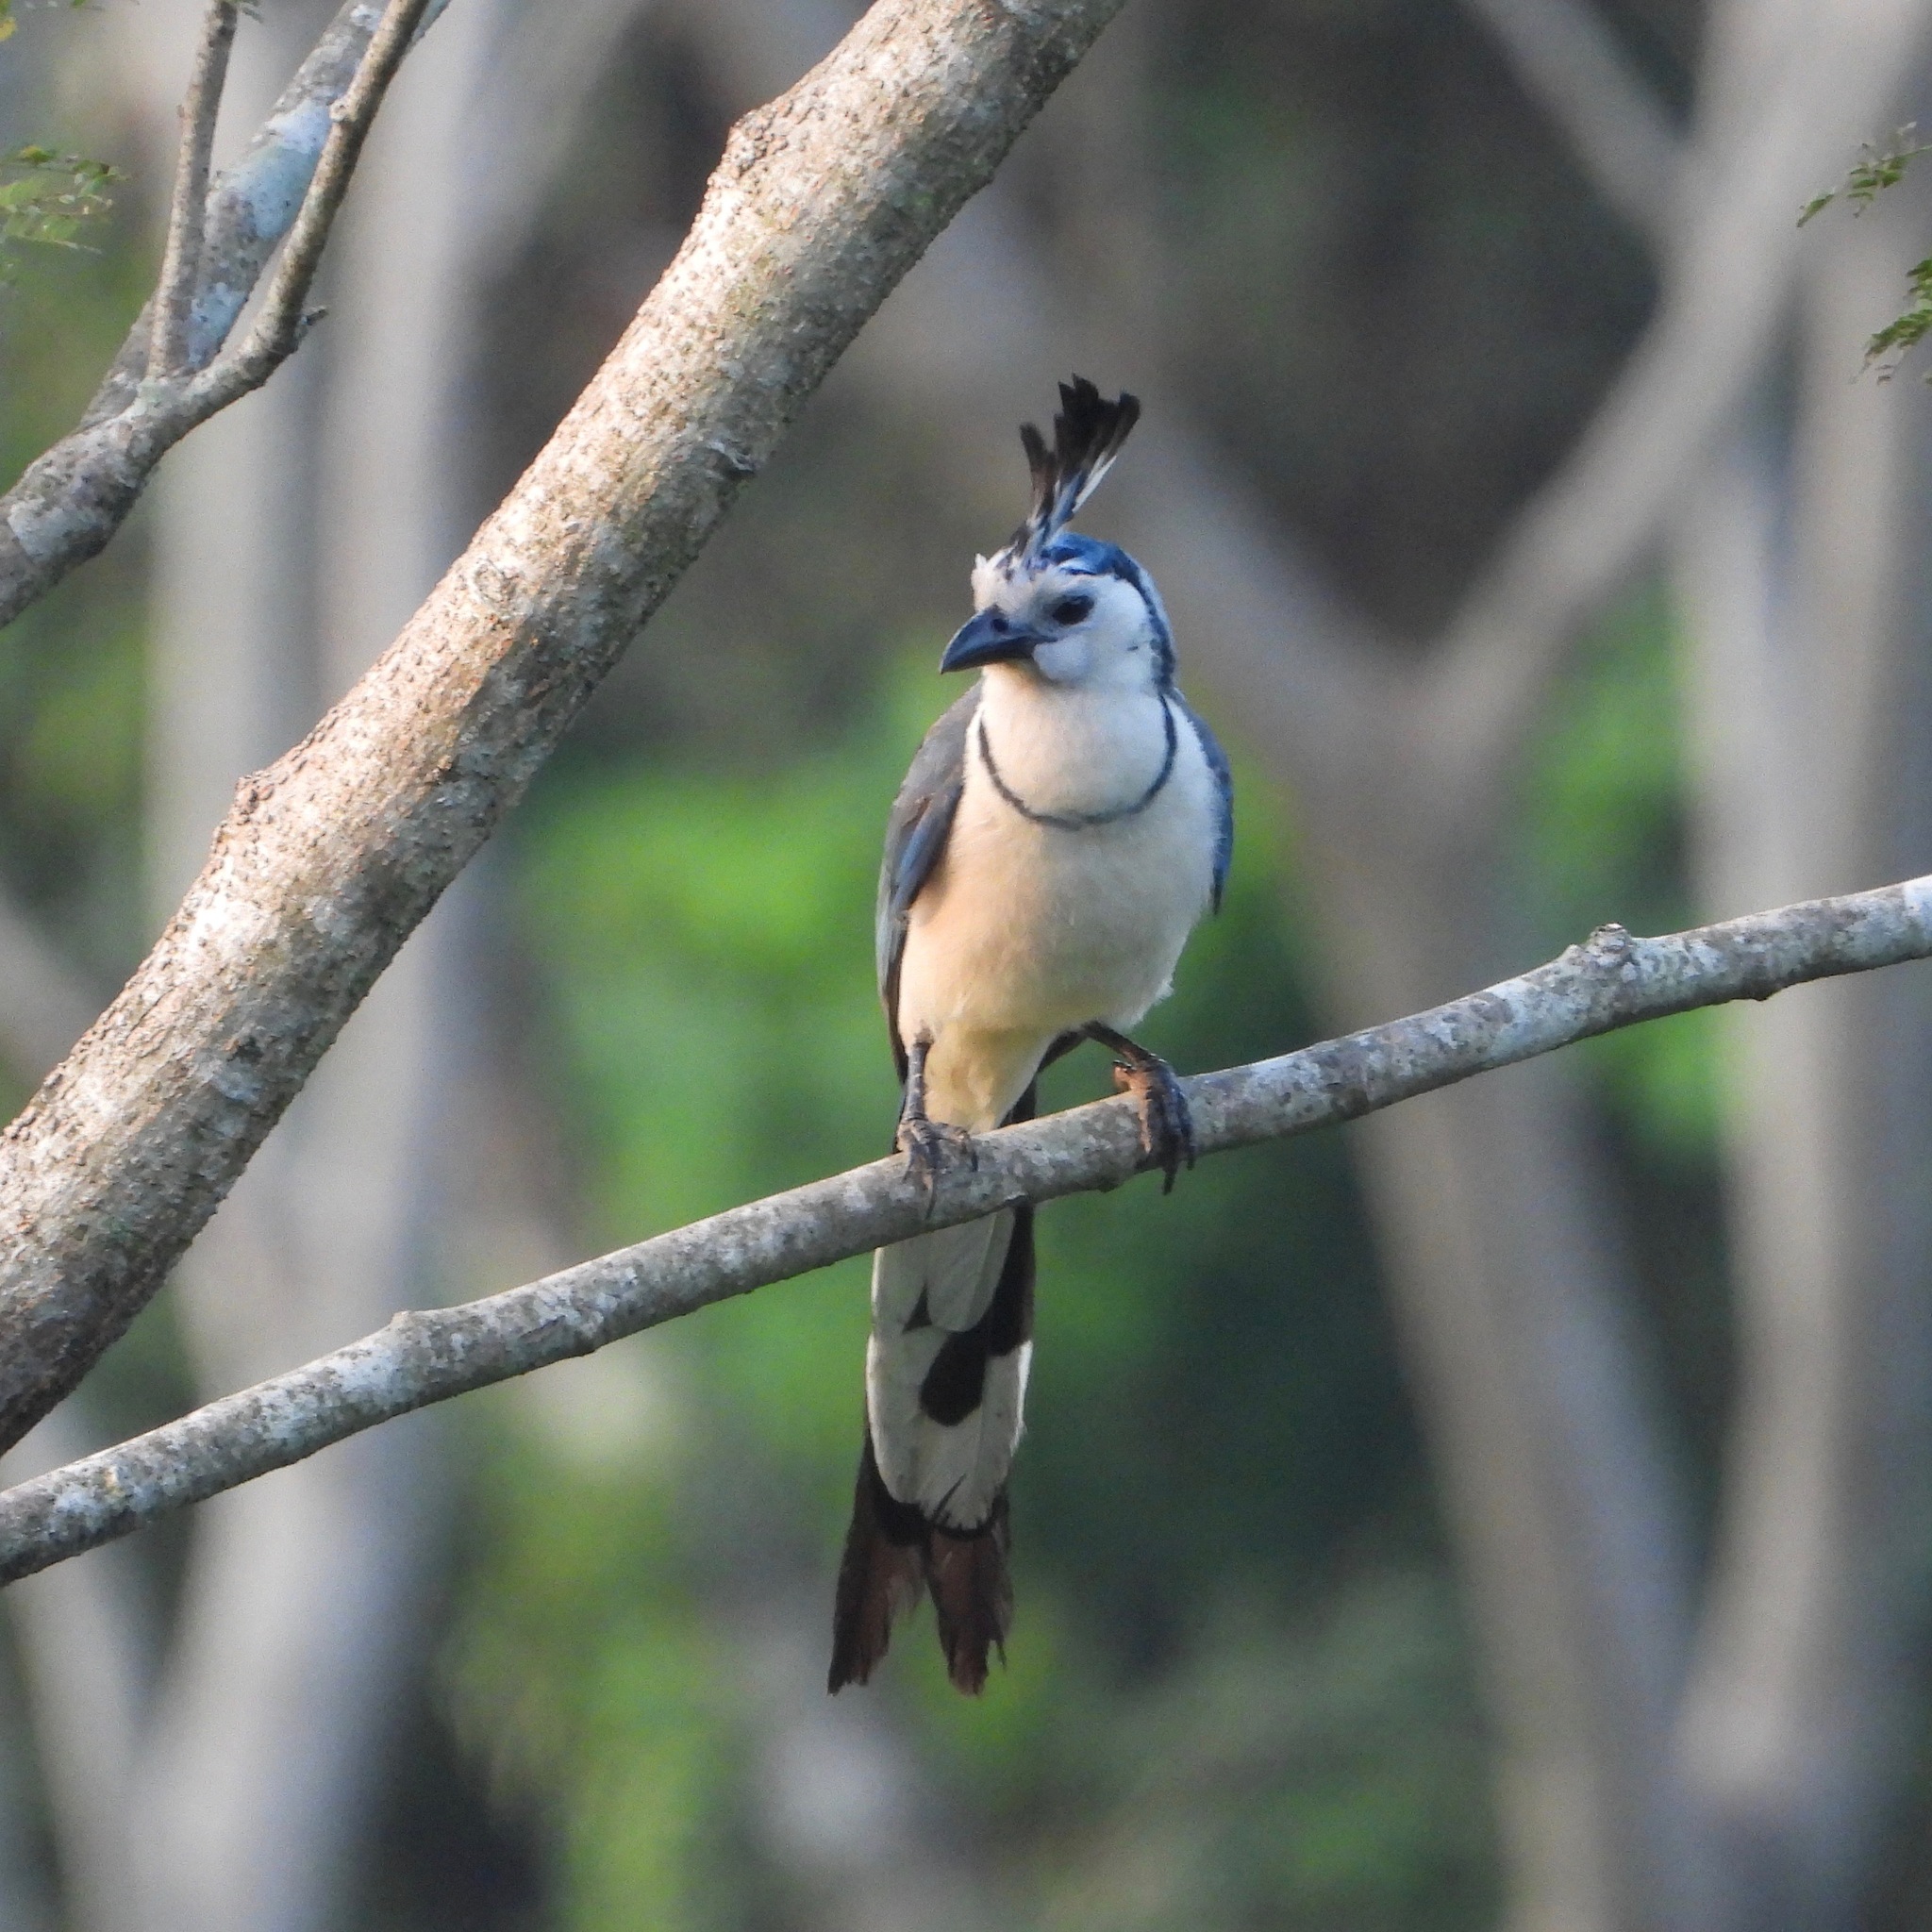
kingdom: Animalia
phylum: Chordata
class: Aves
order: Passeriformes
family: Corvidae
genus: Calocitta
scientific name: Calocitta formosa
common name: White-throated magpie-jay
